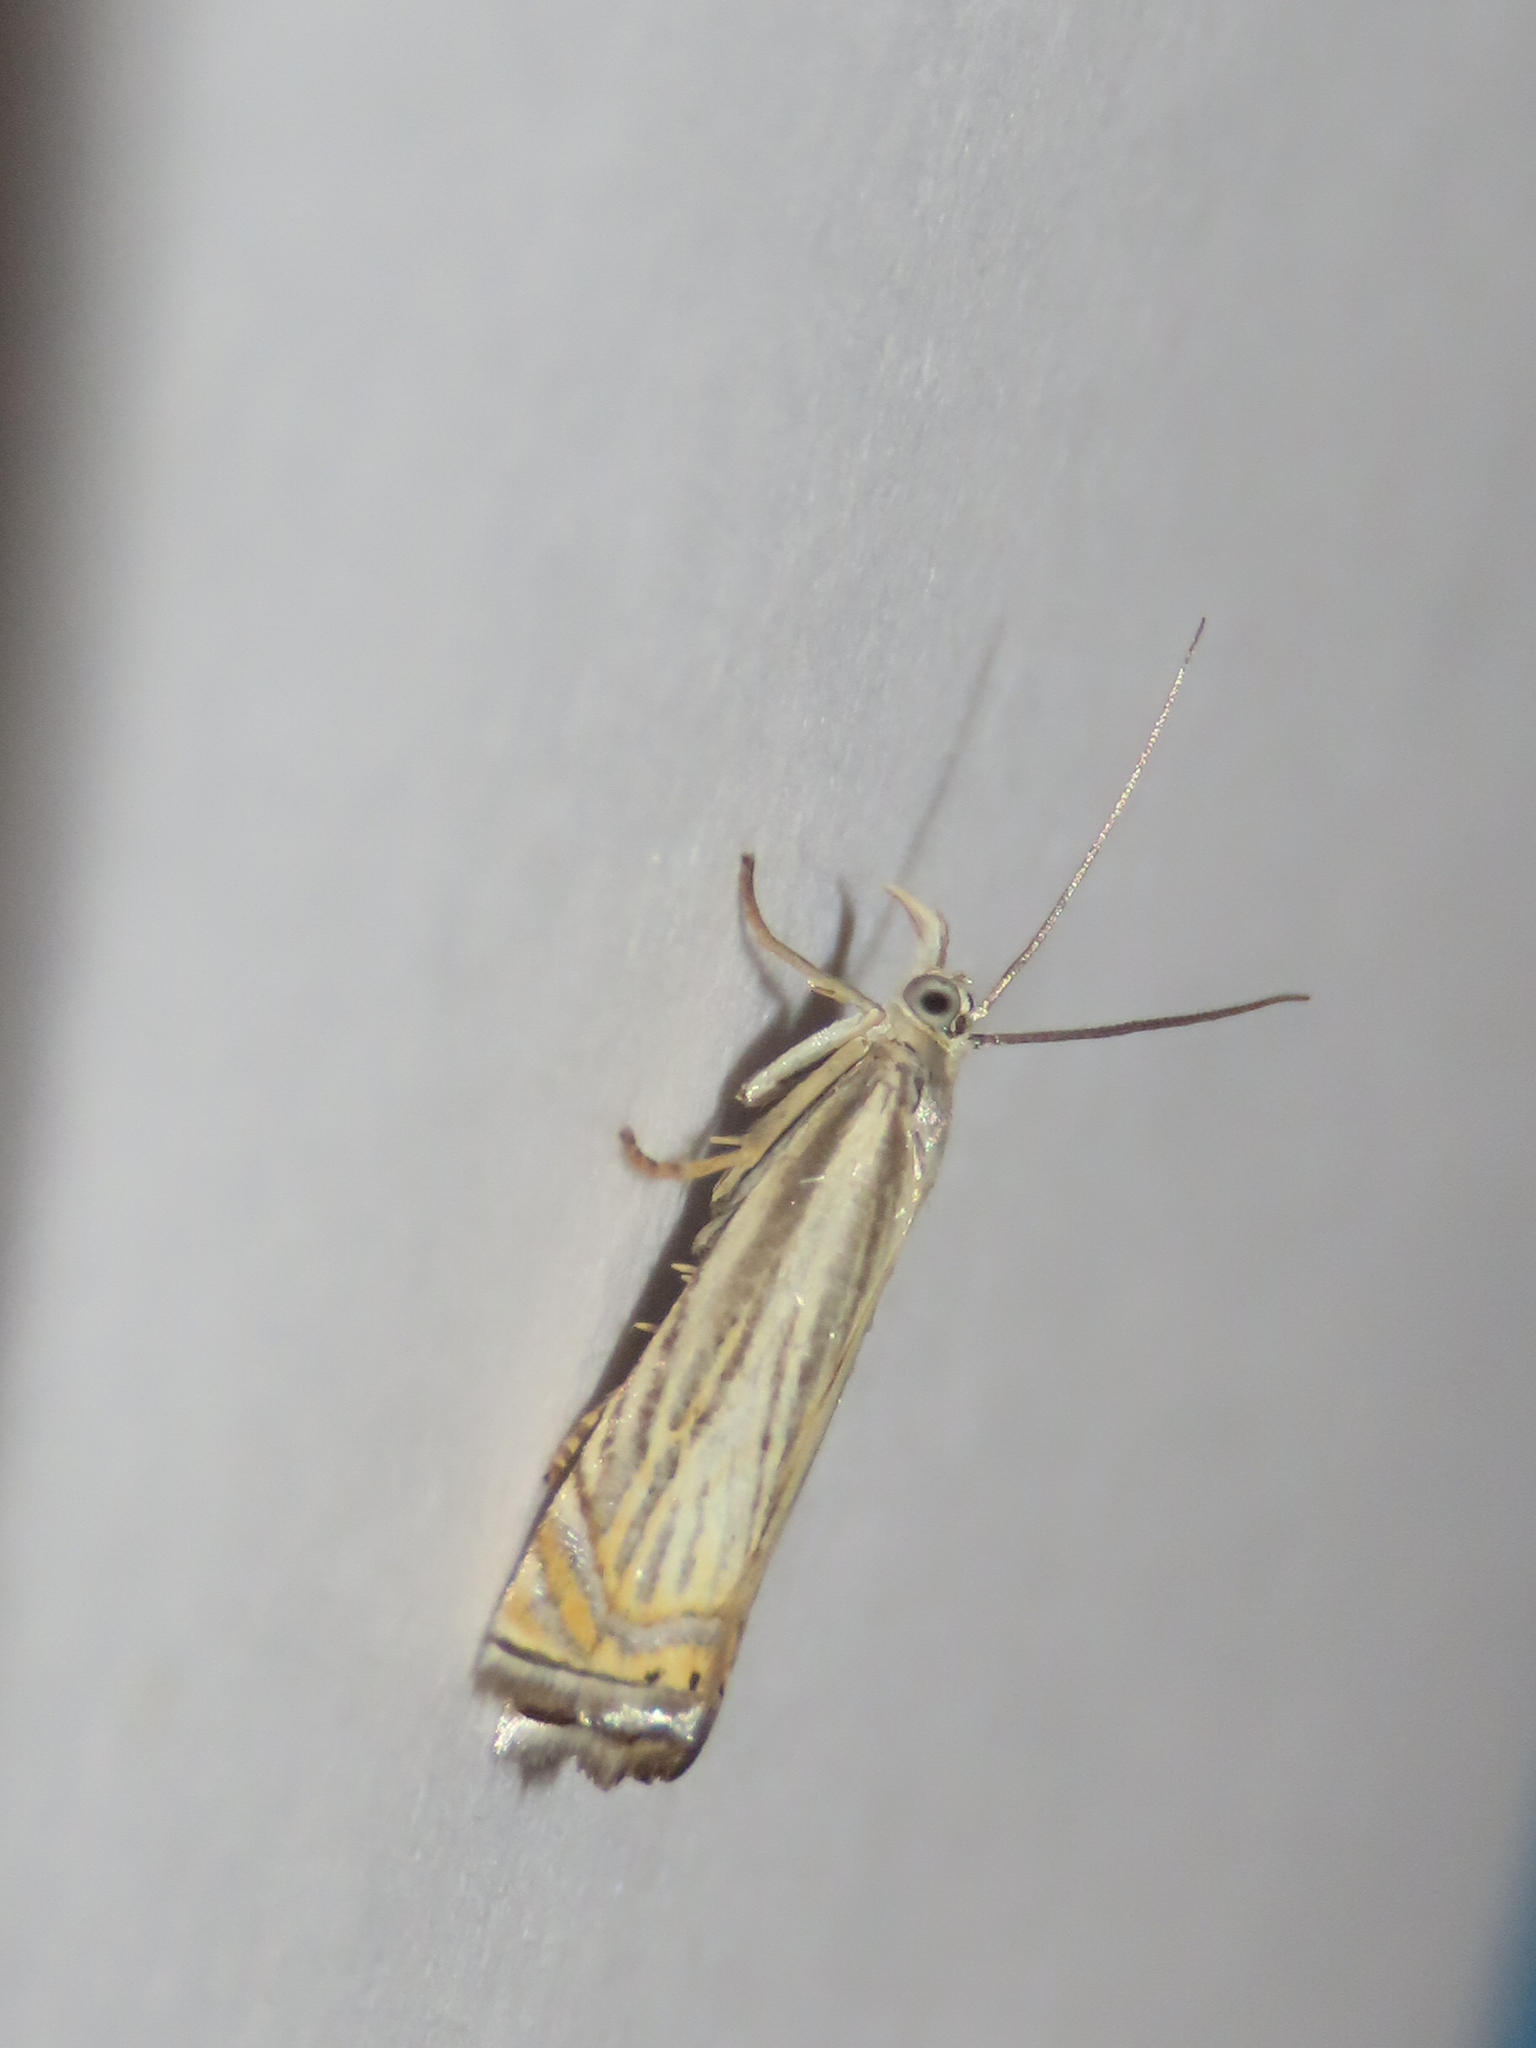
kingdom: Animalia
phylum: Arthropoda
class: Insecta
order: Lepidoptera
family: Crambidae
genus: Chrysoteuchia
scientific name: Chrysoteuchia topiarius
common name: Topiary grass-veneer
